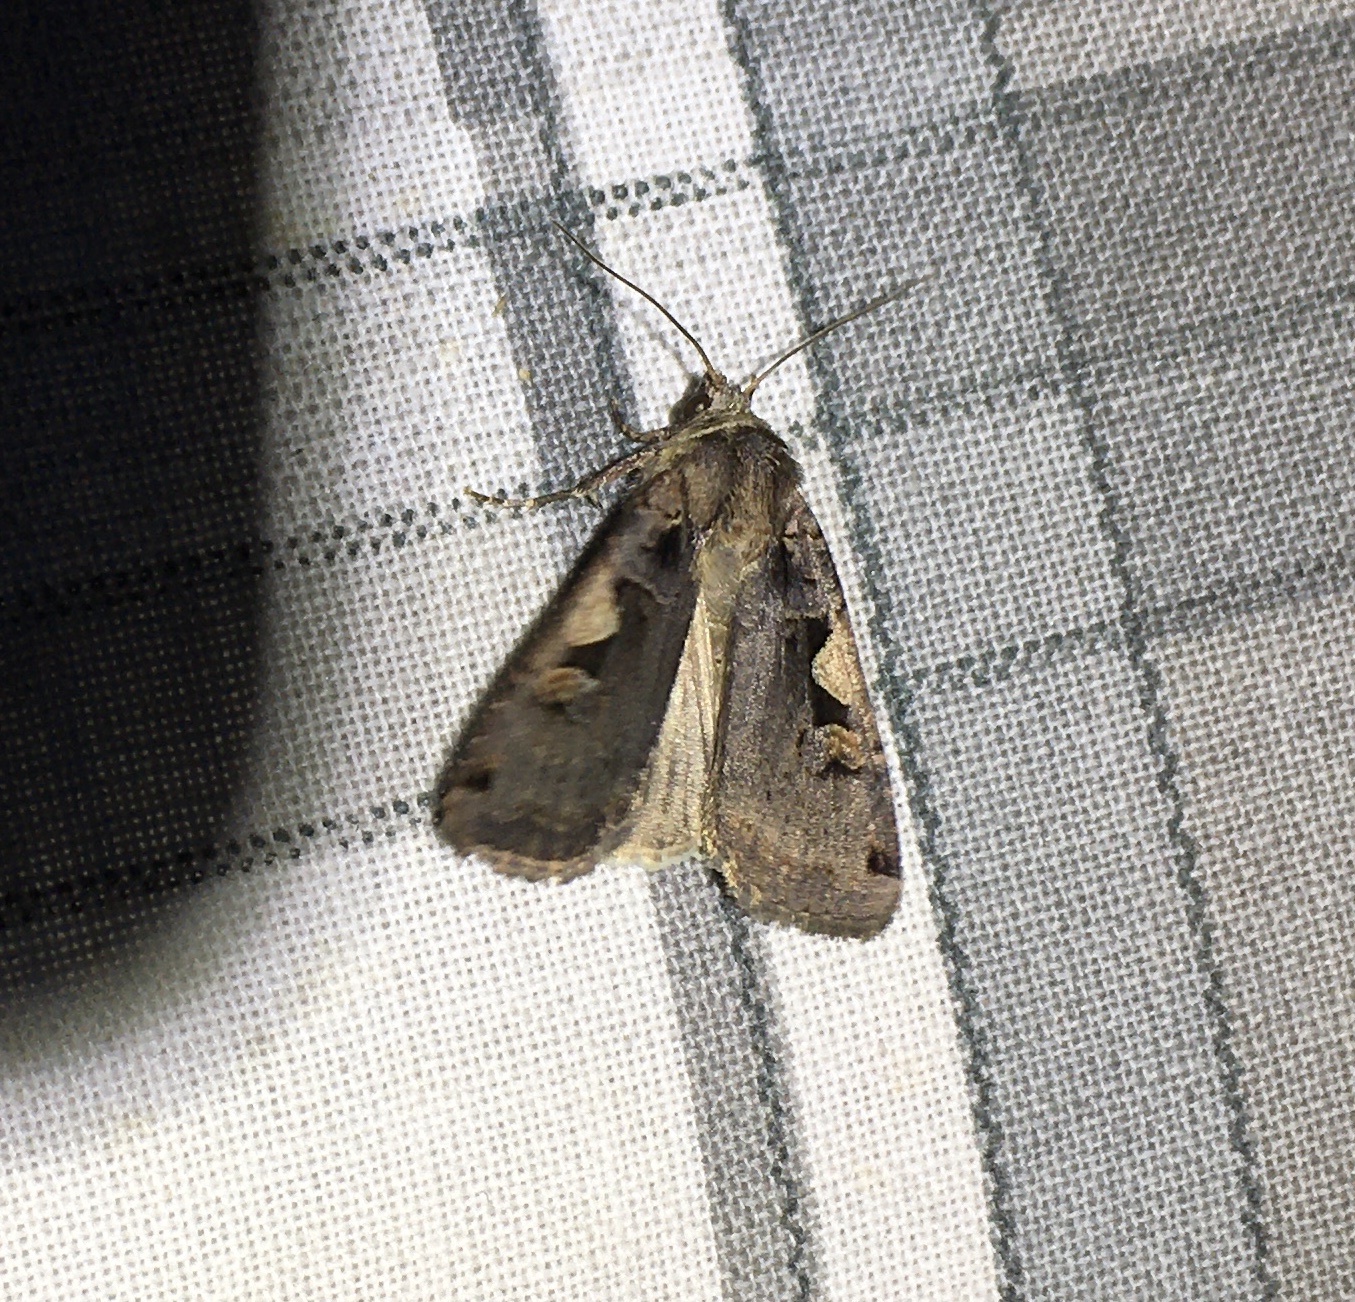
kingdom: Animalia
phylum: Arthropoda
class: Insecta
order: Lepidoptera
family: Noctuidae
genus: Xestia
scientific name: Xestia c-nigrum
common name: Setaceous hebrew character
